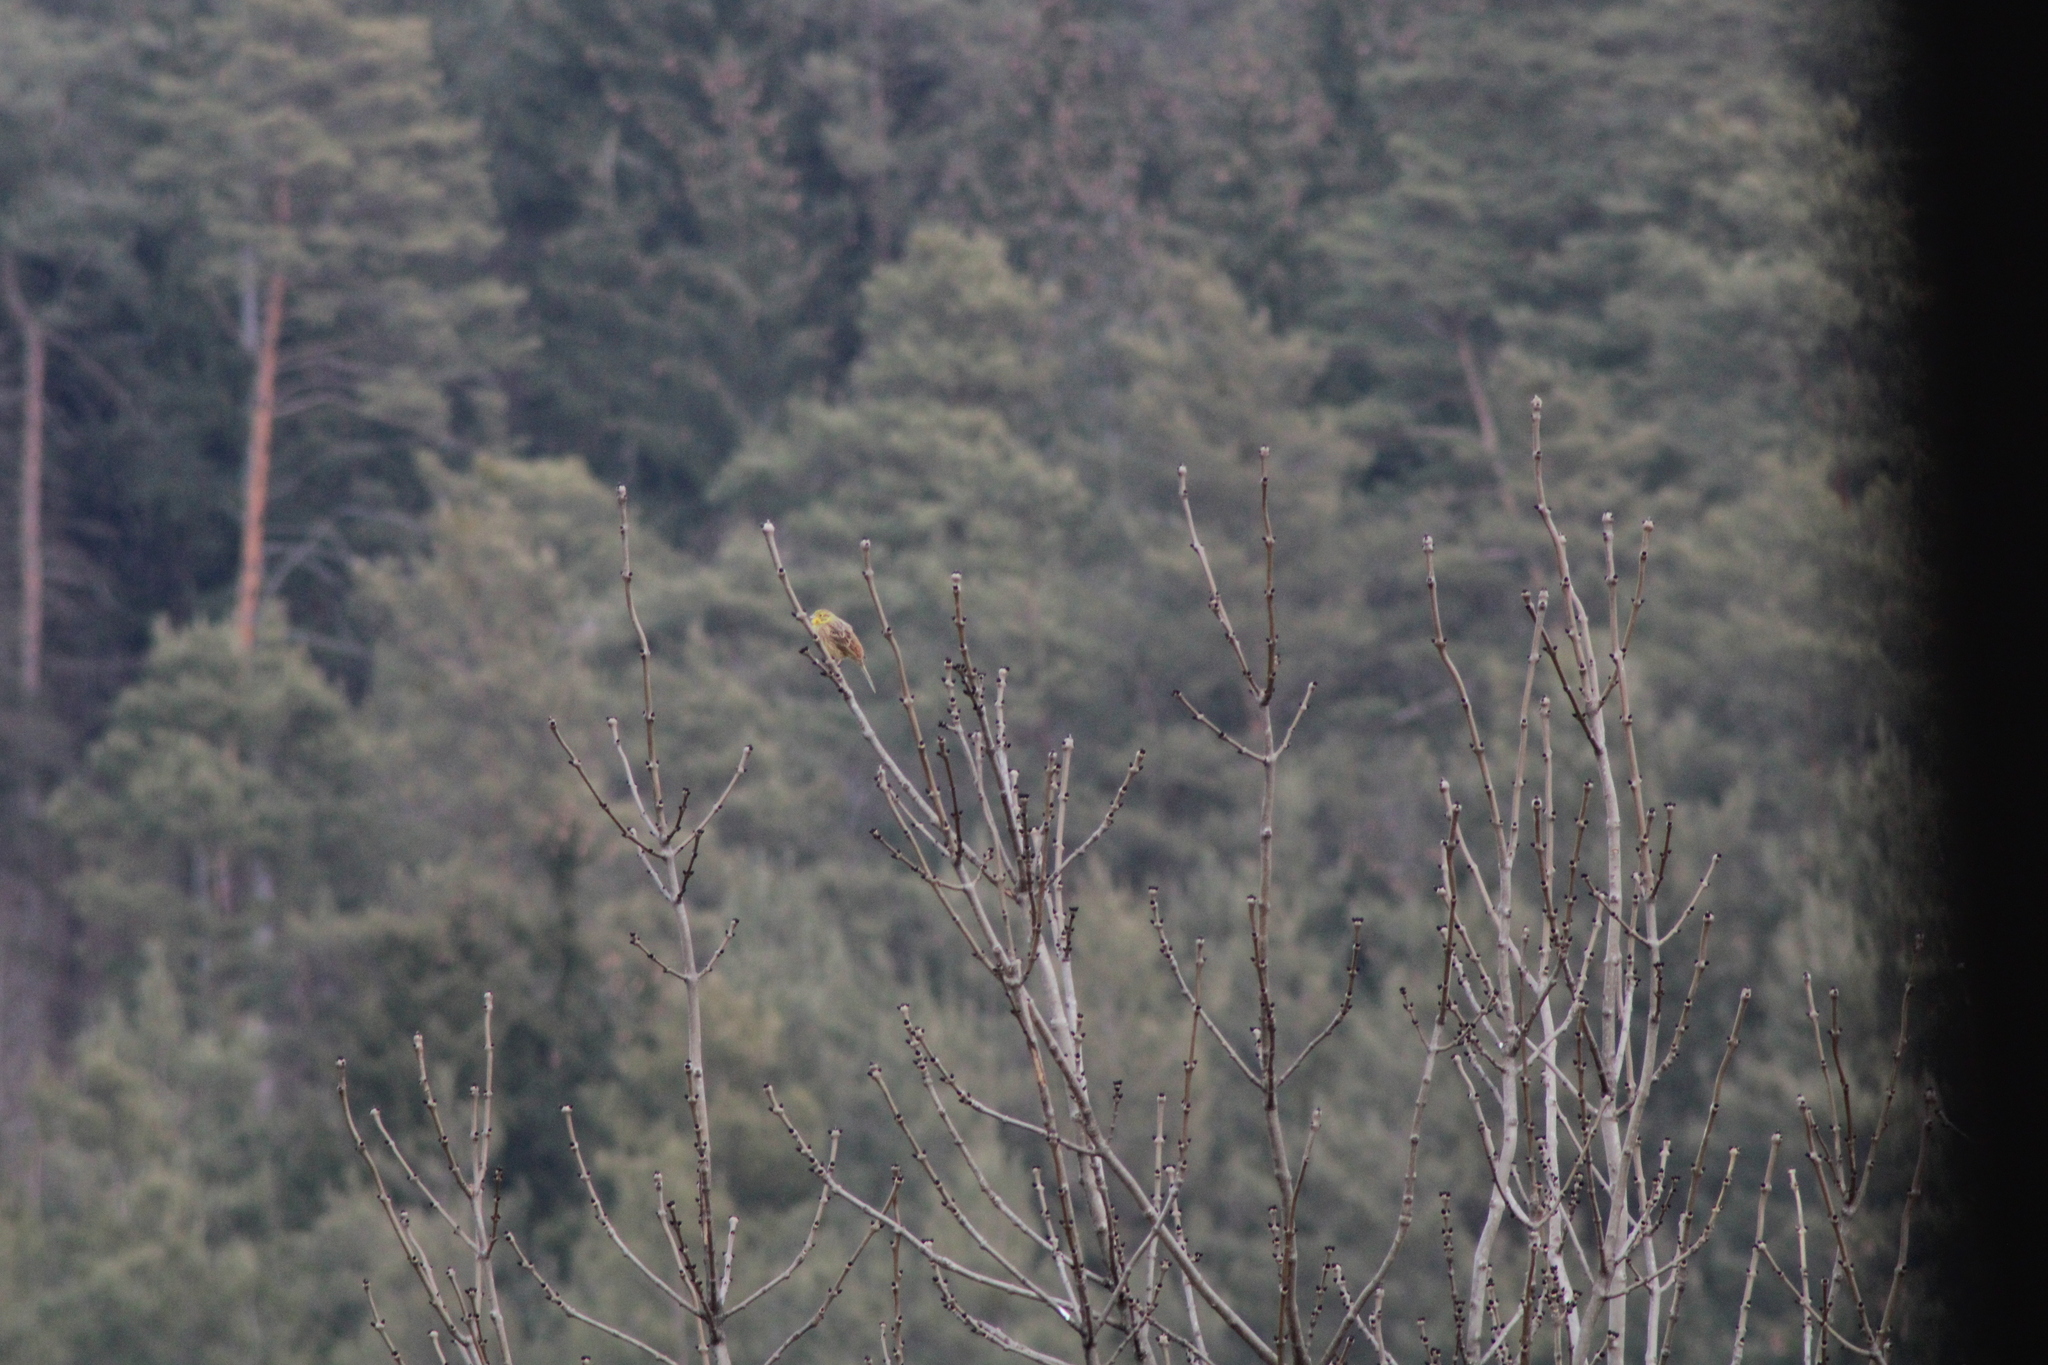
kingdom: Animalia
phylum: Chordata
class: Aves
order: Passeriformes
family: Emberizidae
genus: Emberiza
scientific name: Emberiza citrinella
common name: Yellowhammer
